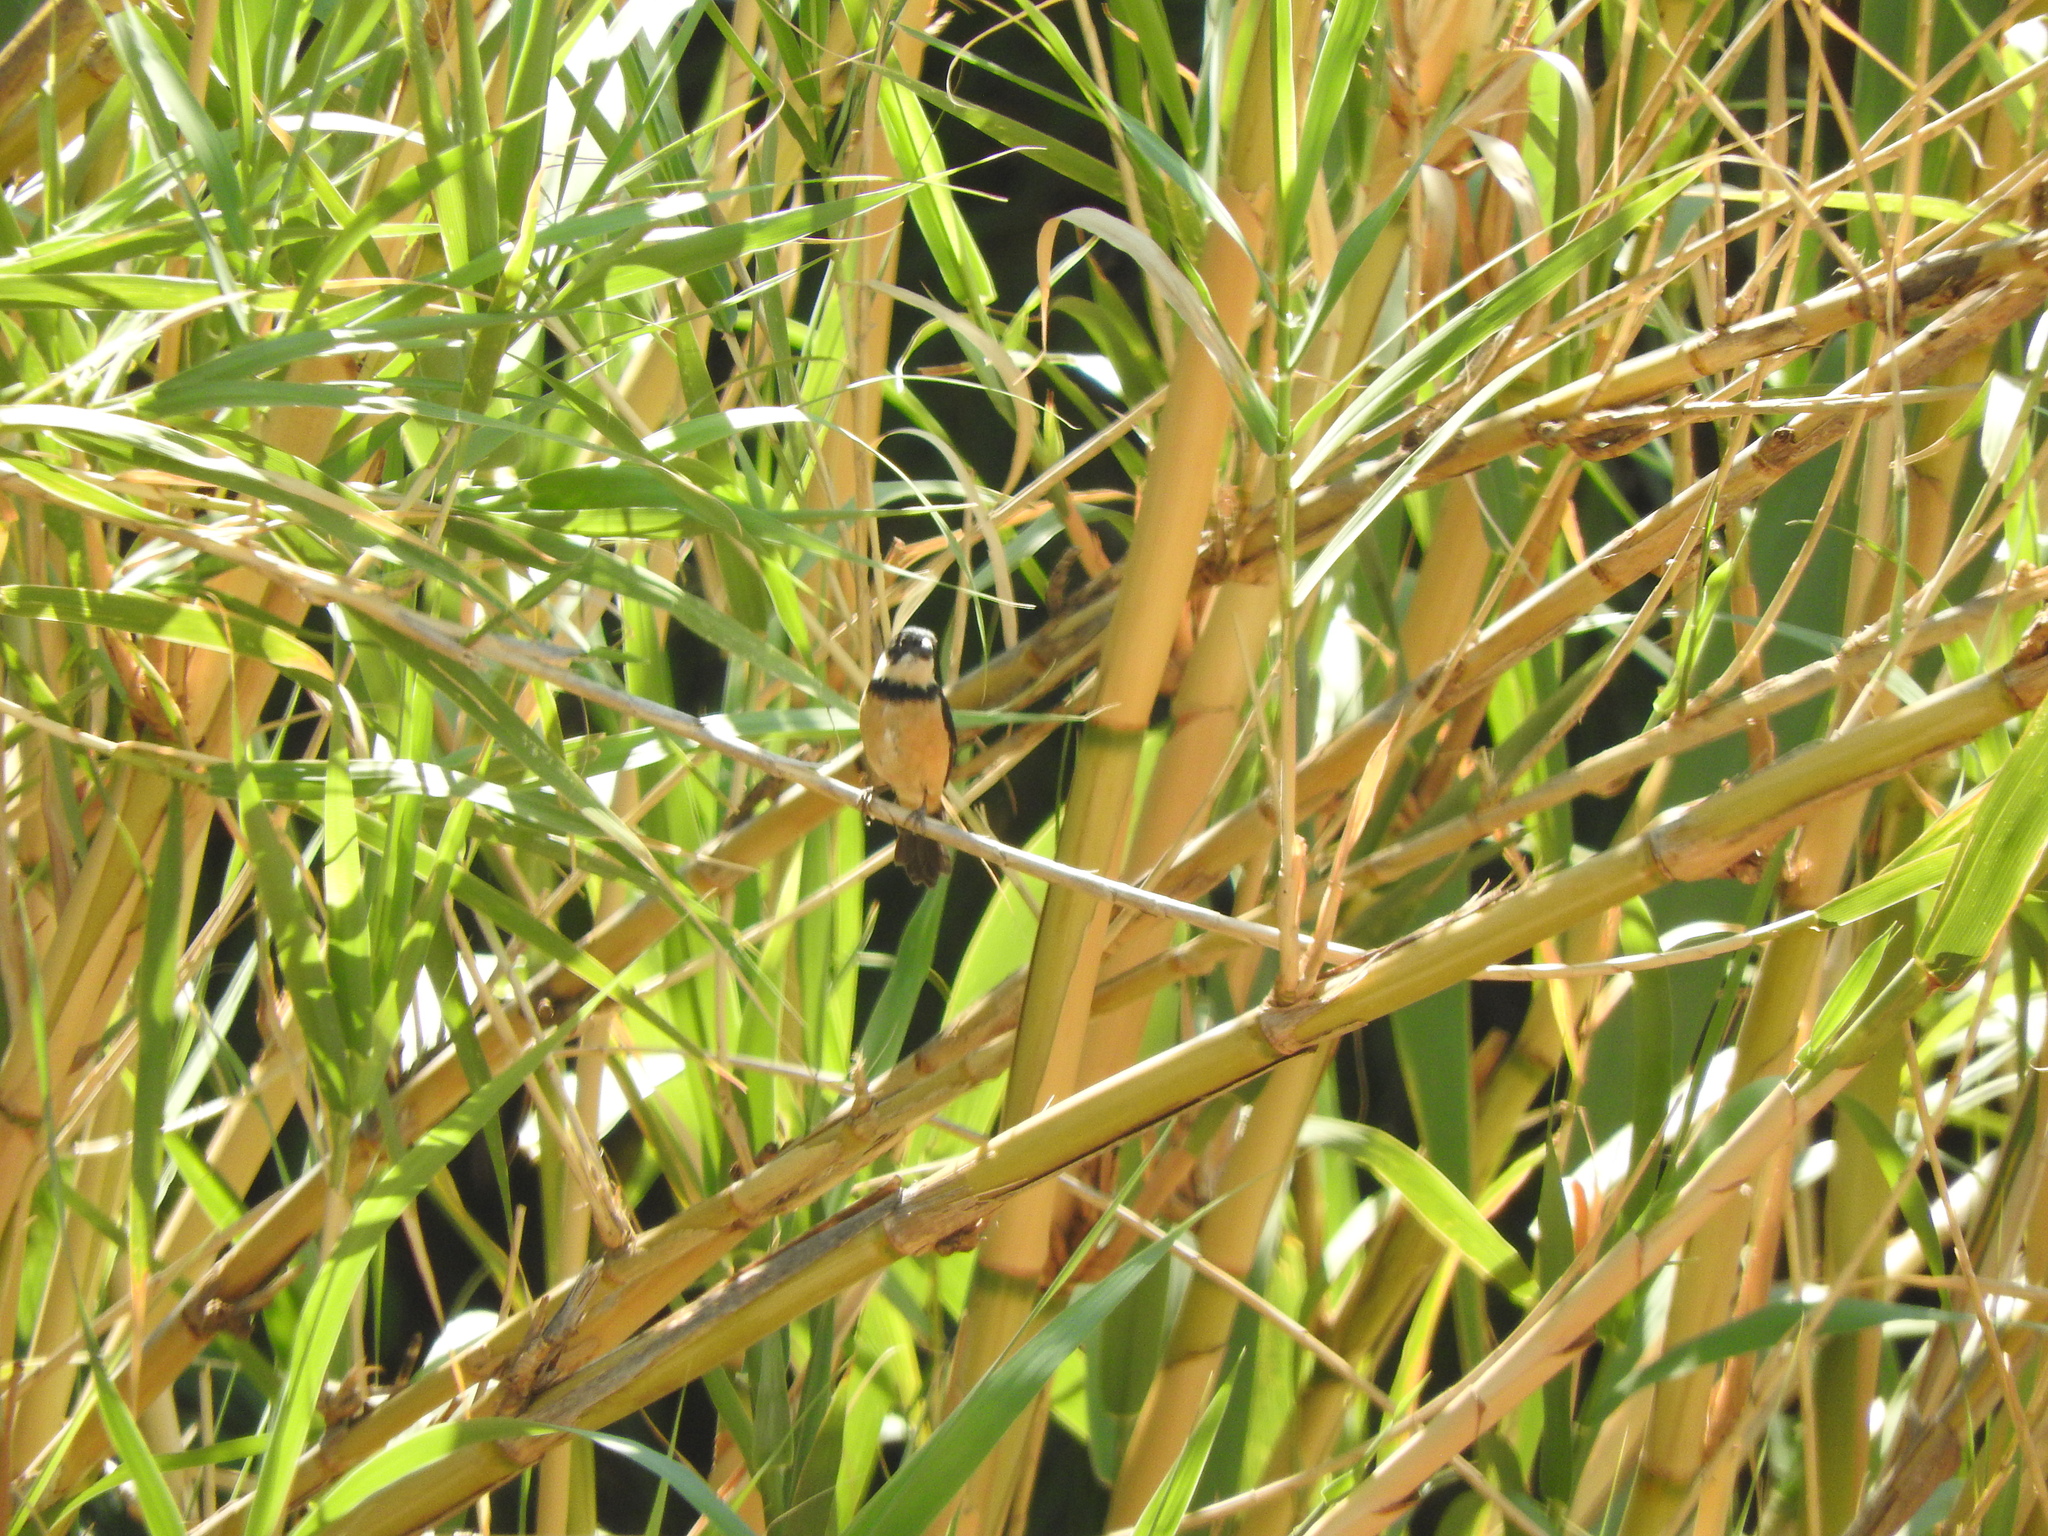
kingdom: Plantae
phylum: Tracheophyta
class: Liliopsida
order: Poales
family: Poaceae
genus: Arundo
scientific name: Arundo donax
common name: Giant reed
